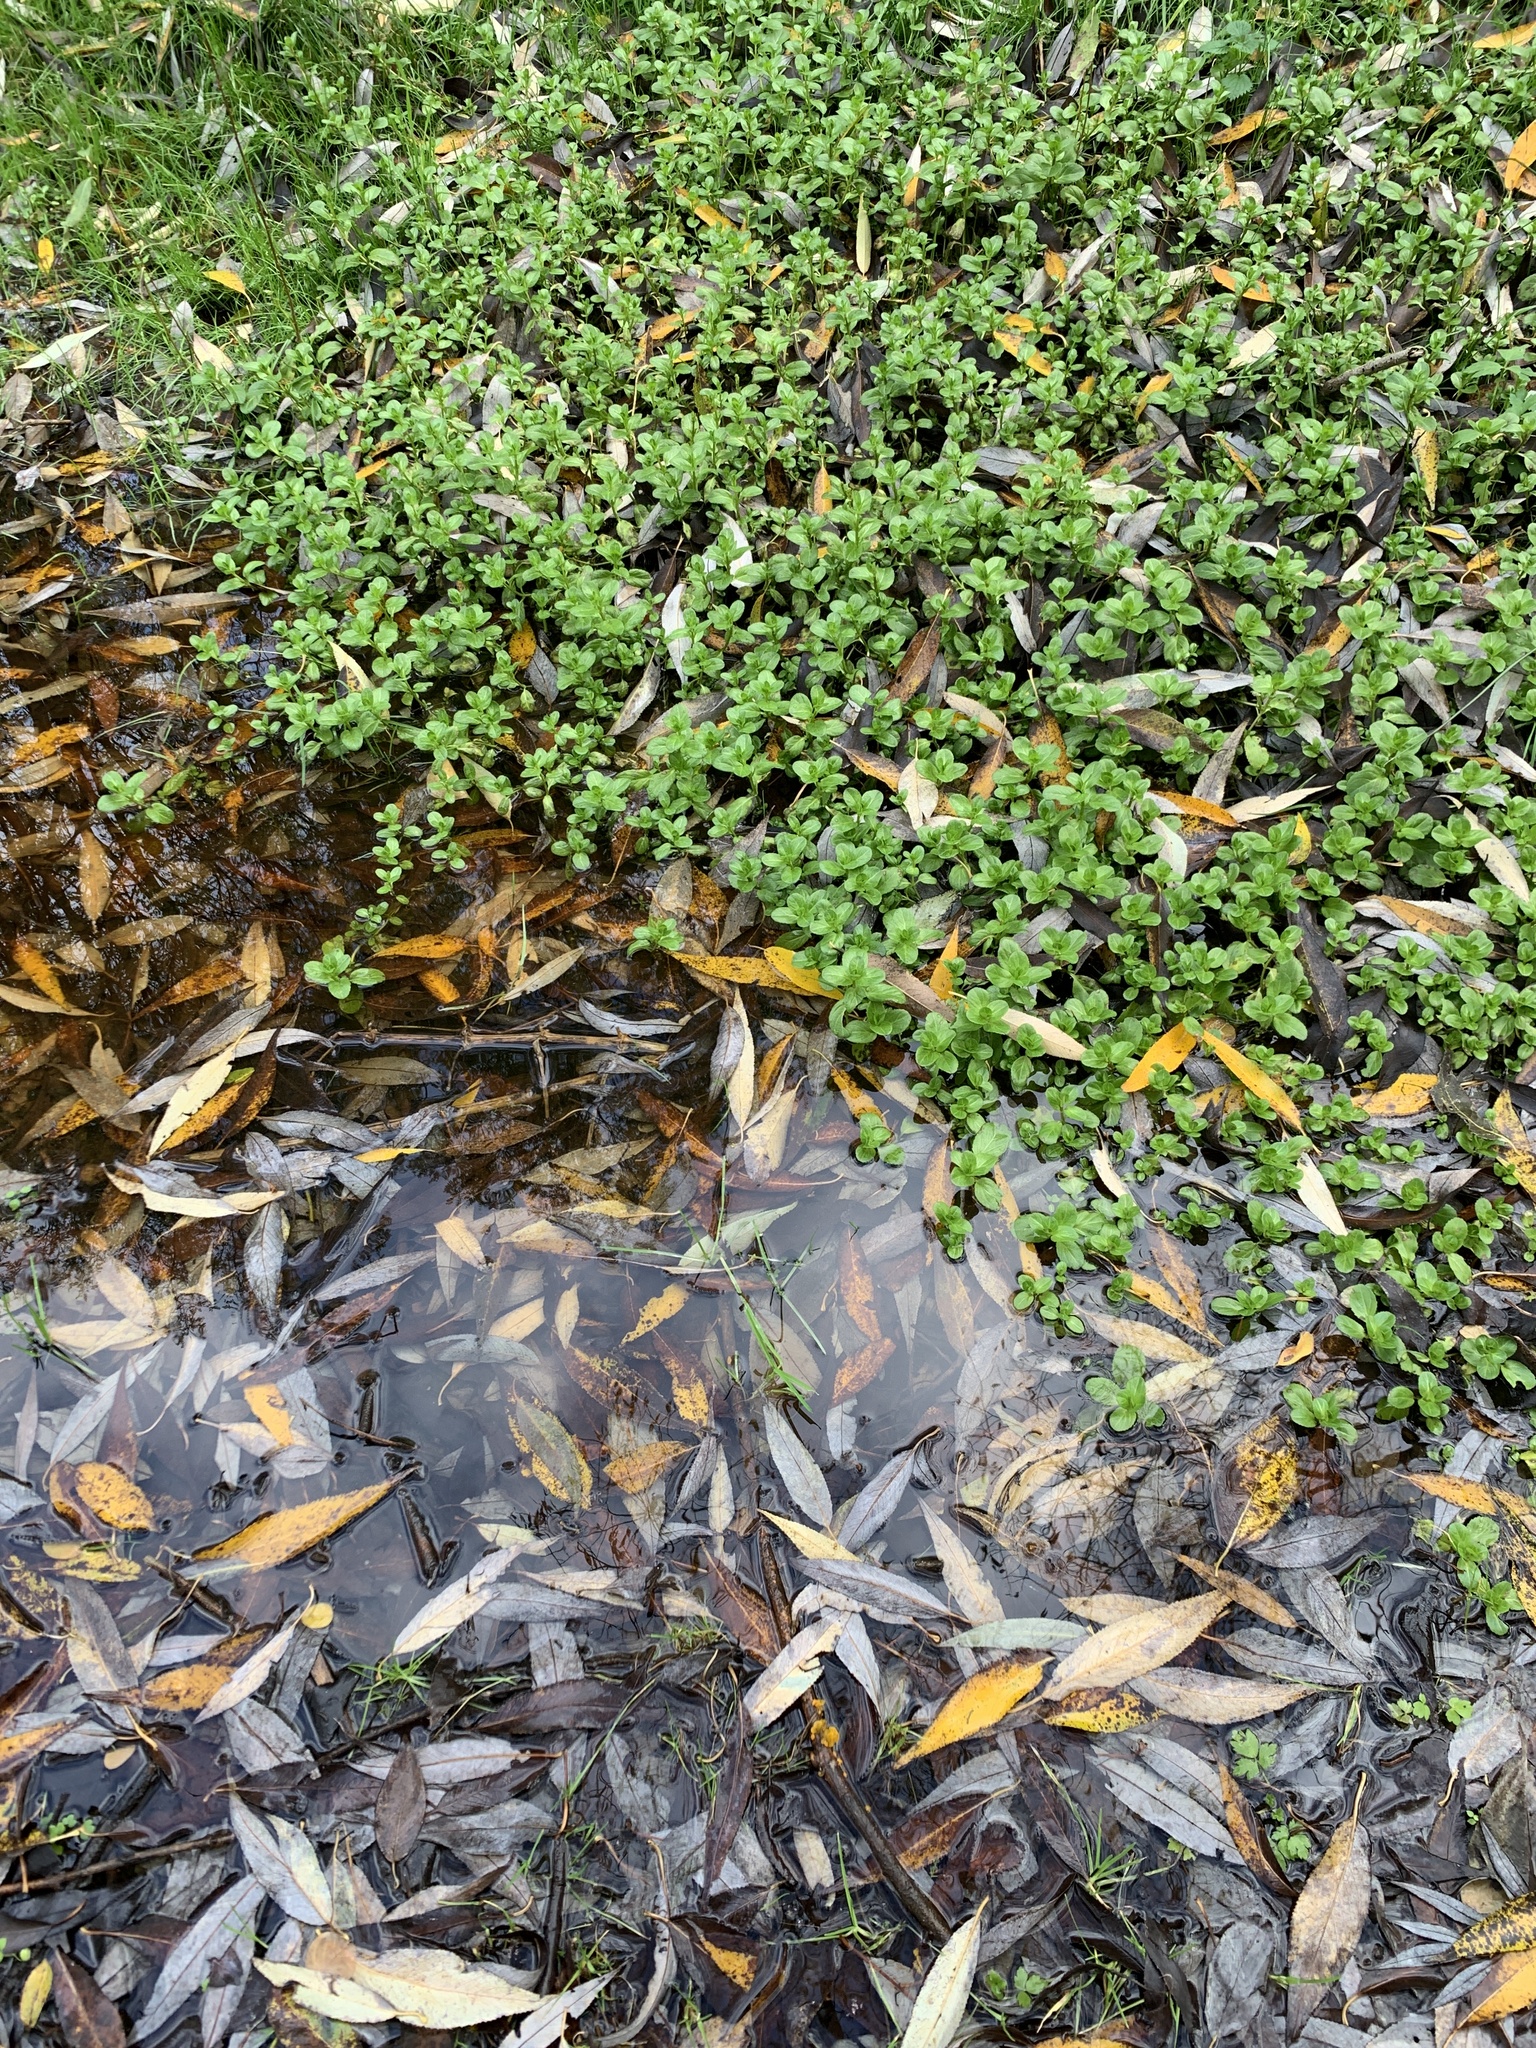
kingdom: Plantae
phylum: Tracheophyta
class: Magnoliopsida
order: Lamiales
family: Plantaginaceae
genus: Veronica
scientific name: Veronica beccabunga
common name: Brooklime
